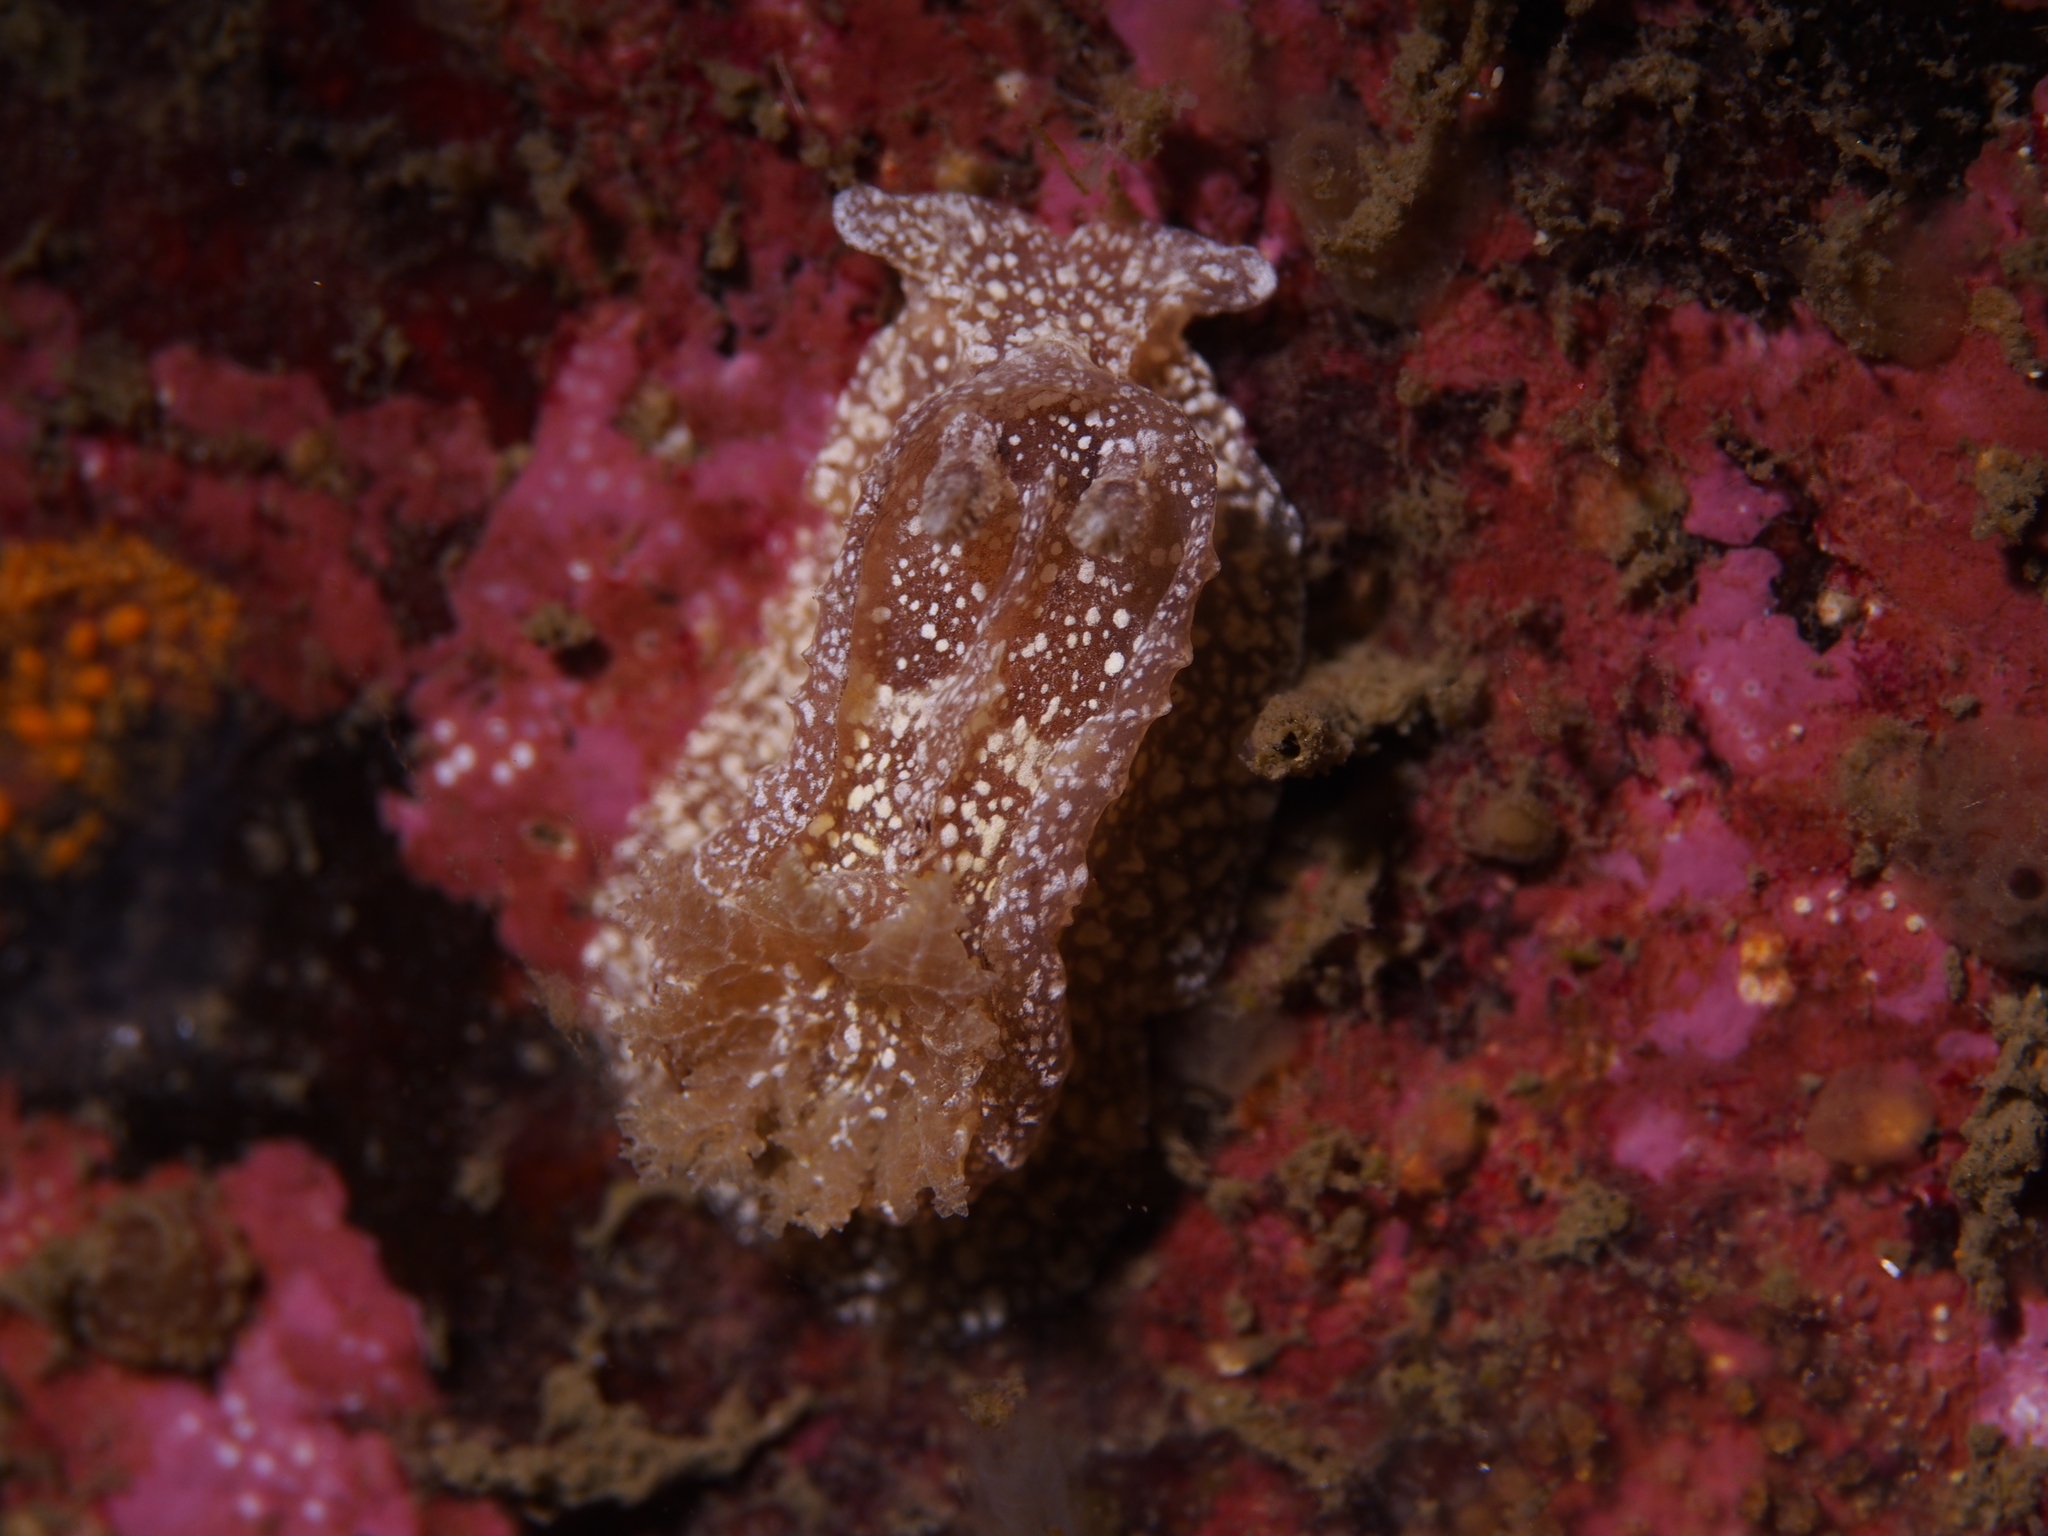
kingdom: Animalia
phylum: Mollusca
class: Gastropoda
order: Nudibranchia
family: Goniodorididae
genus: Pelagella
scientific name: Pelagella castanea
